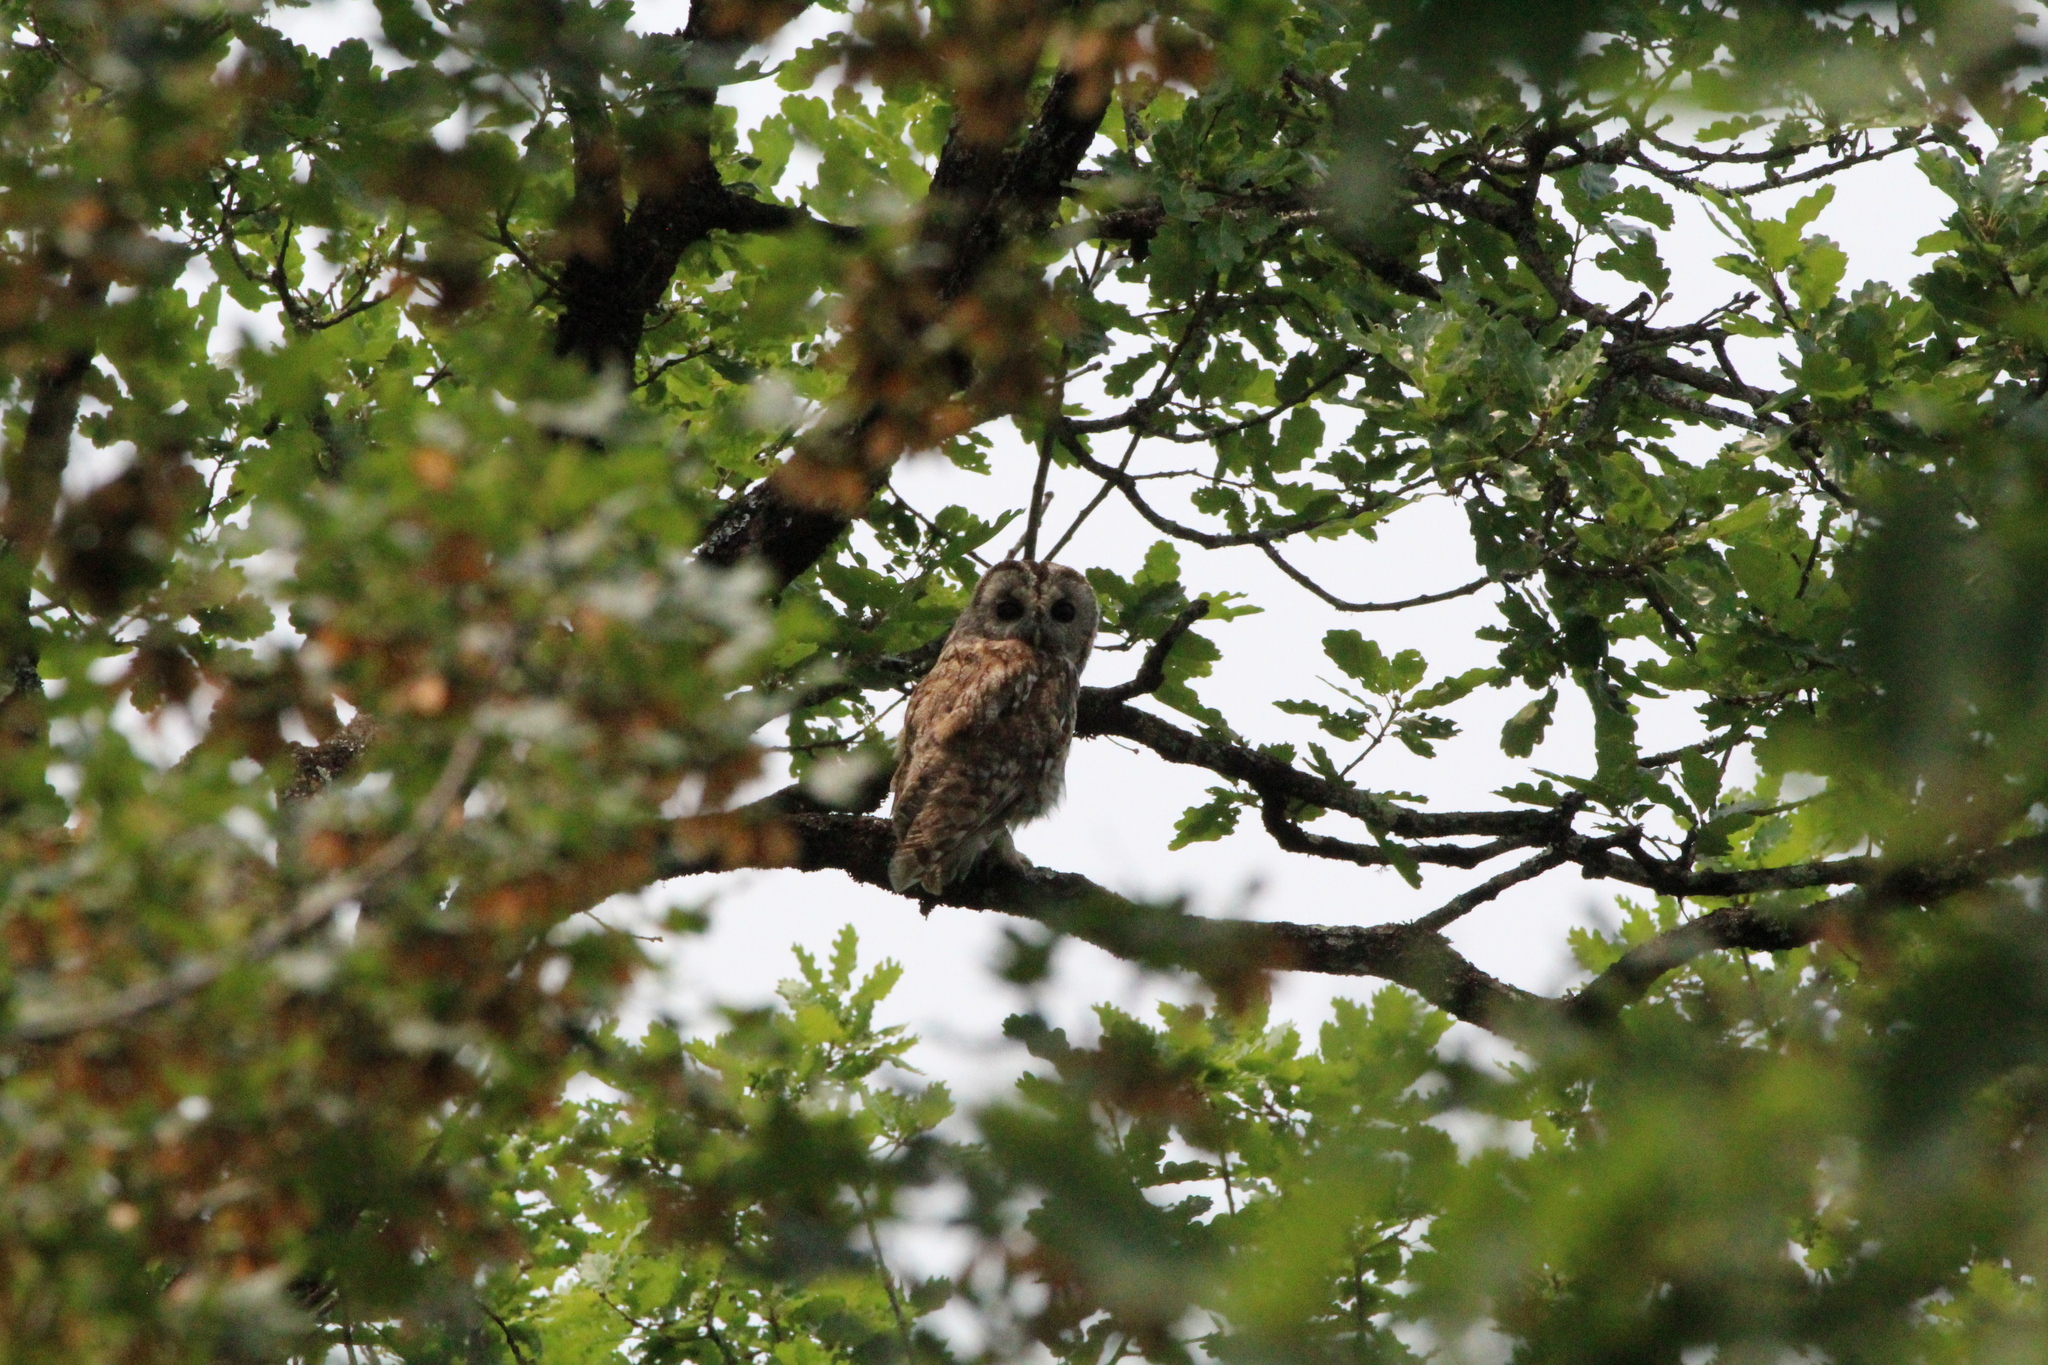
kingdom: Animalia
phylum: Chordata
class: Aves
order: Strigiformes
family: Strigidae
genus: Strix
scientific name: Strix aluco
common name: Tawny owl
